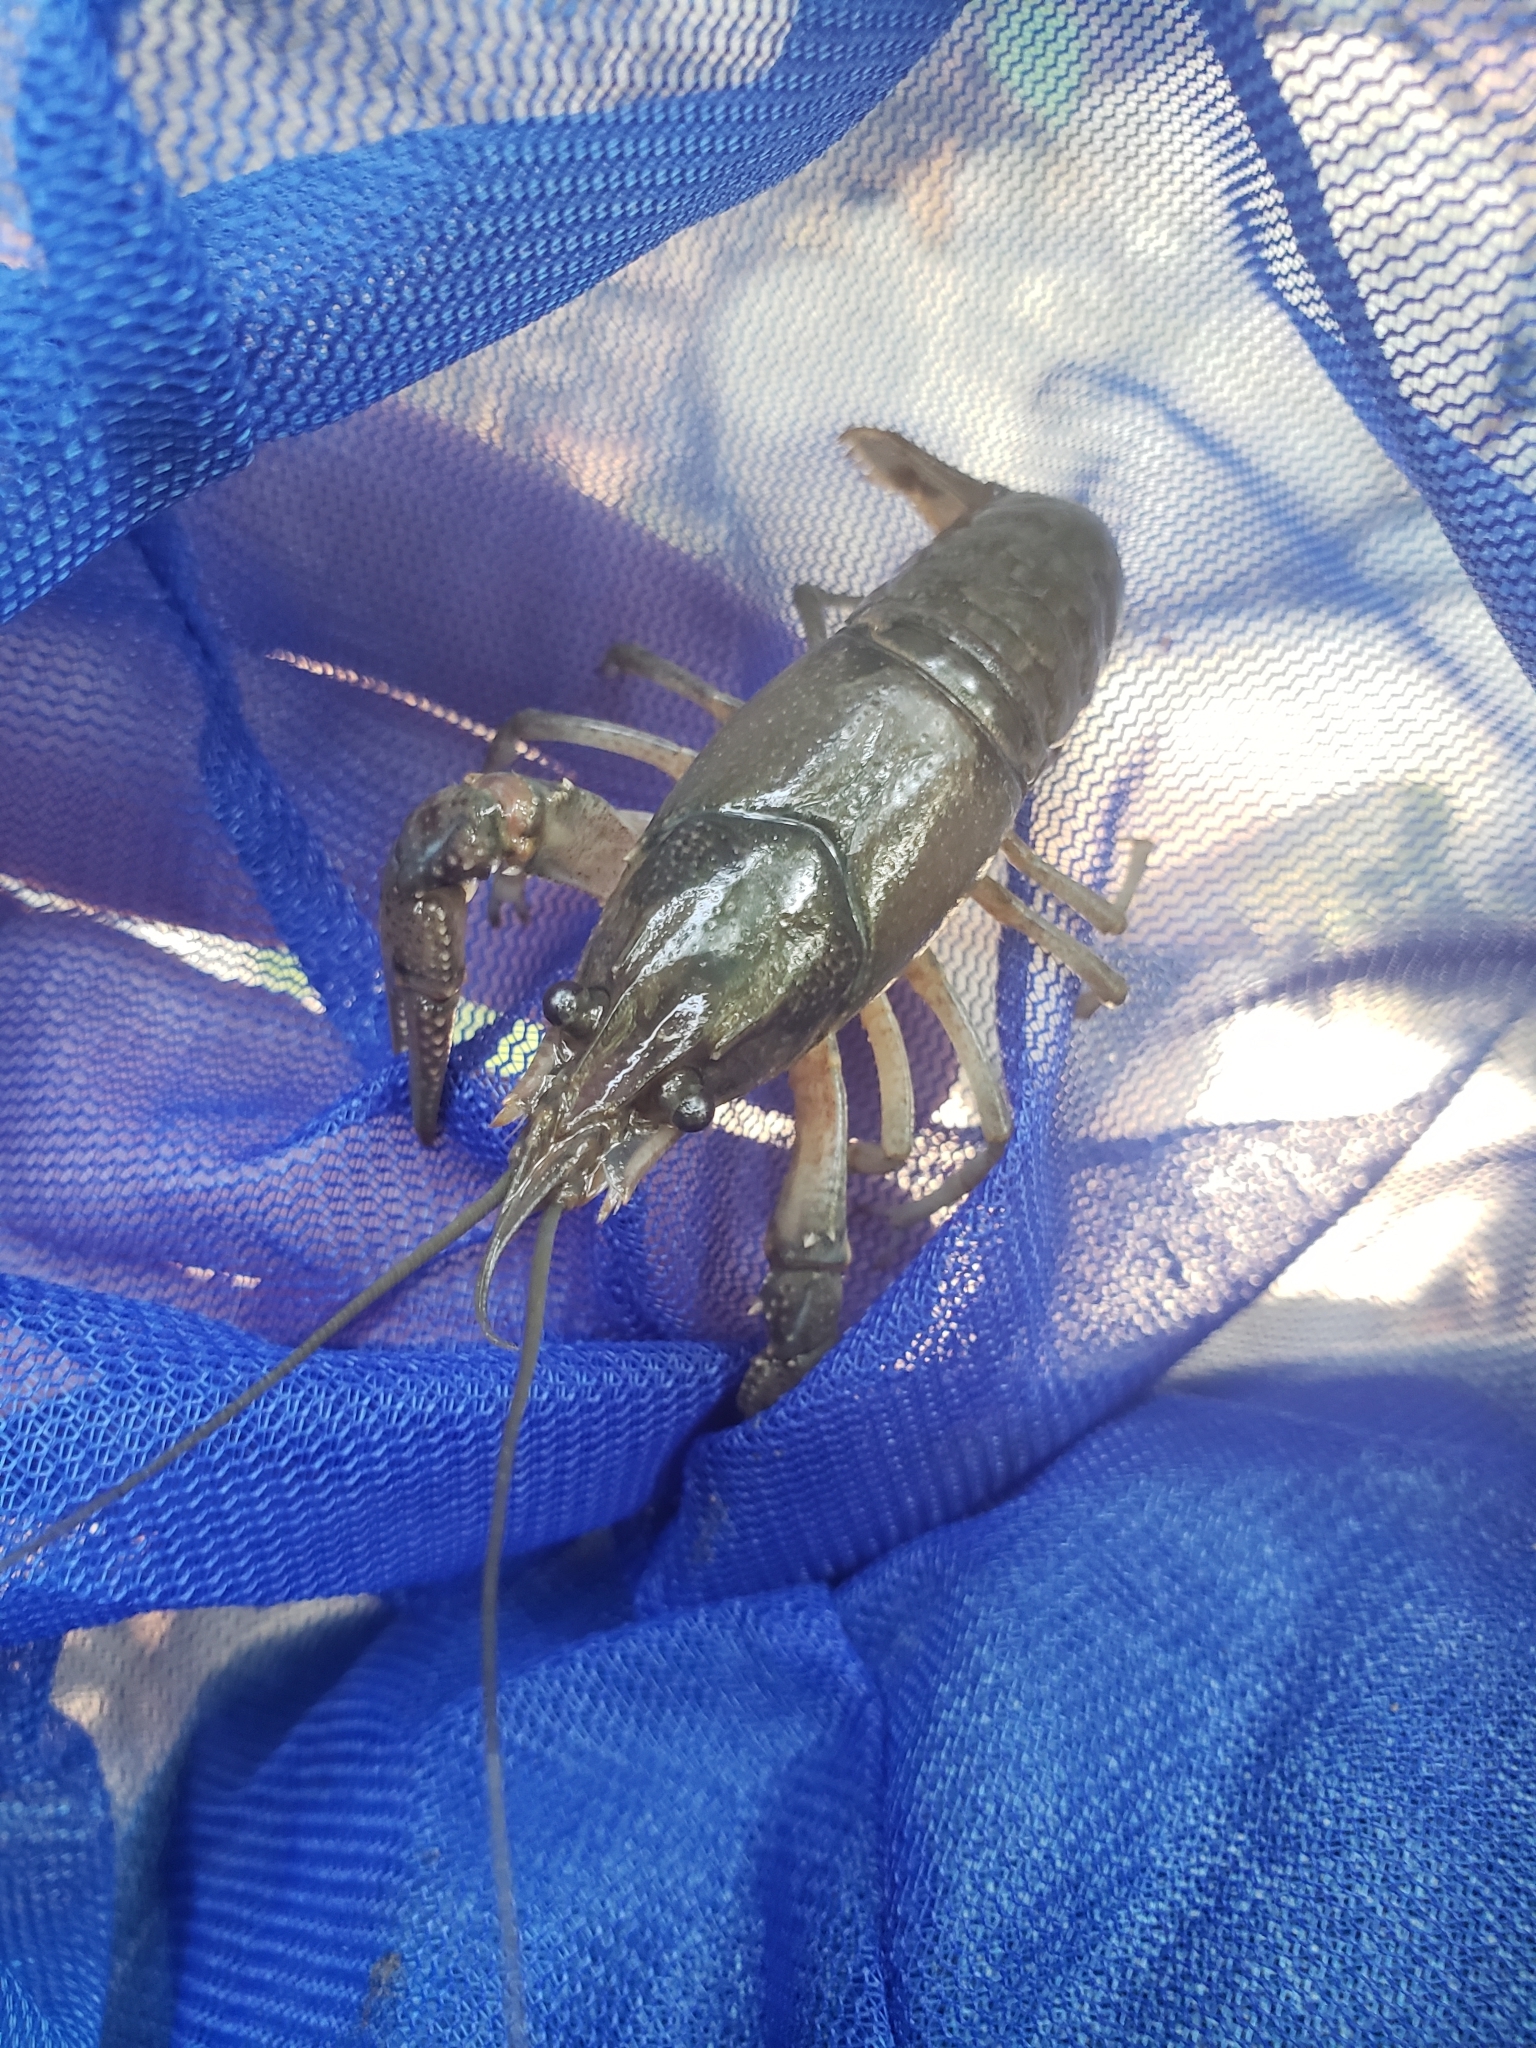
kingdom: Animalia
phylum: Arthropoda
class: Malacostraca
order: Decapoda
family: Cambaridae
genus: Faxonius
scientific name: Faxonius virilis
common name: Virile crayfish
